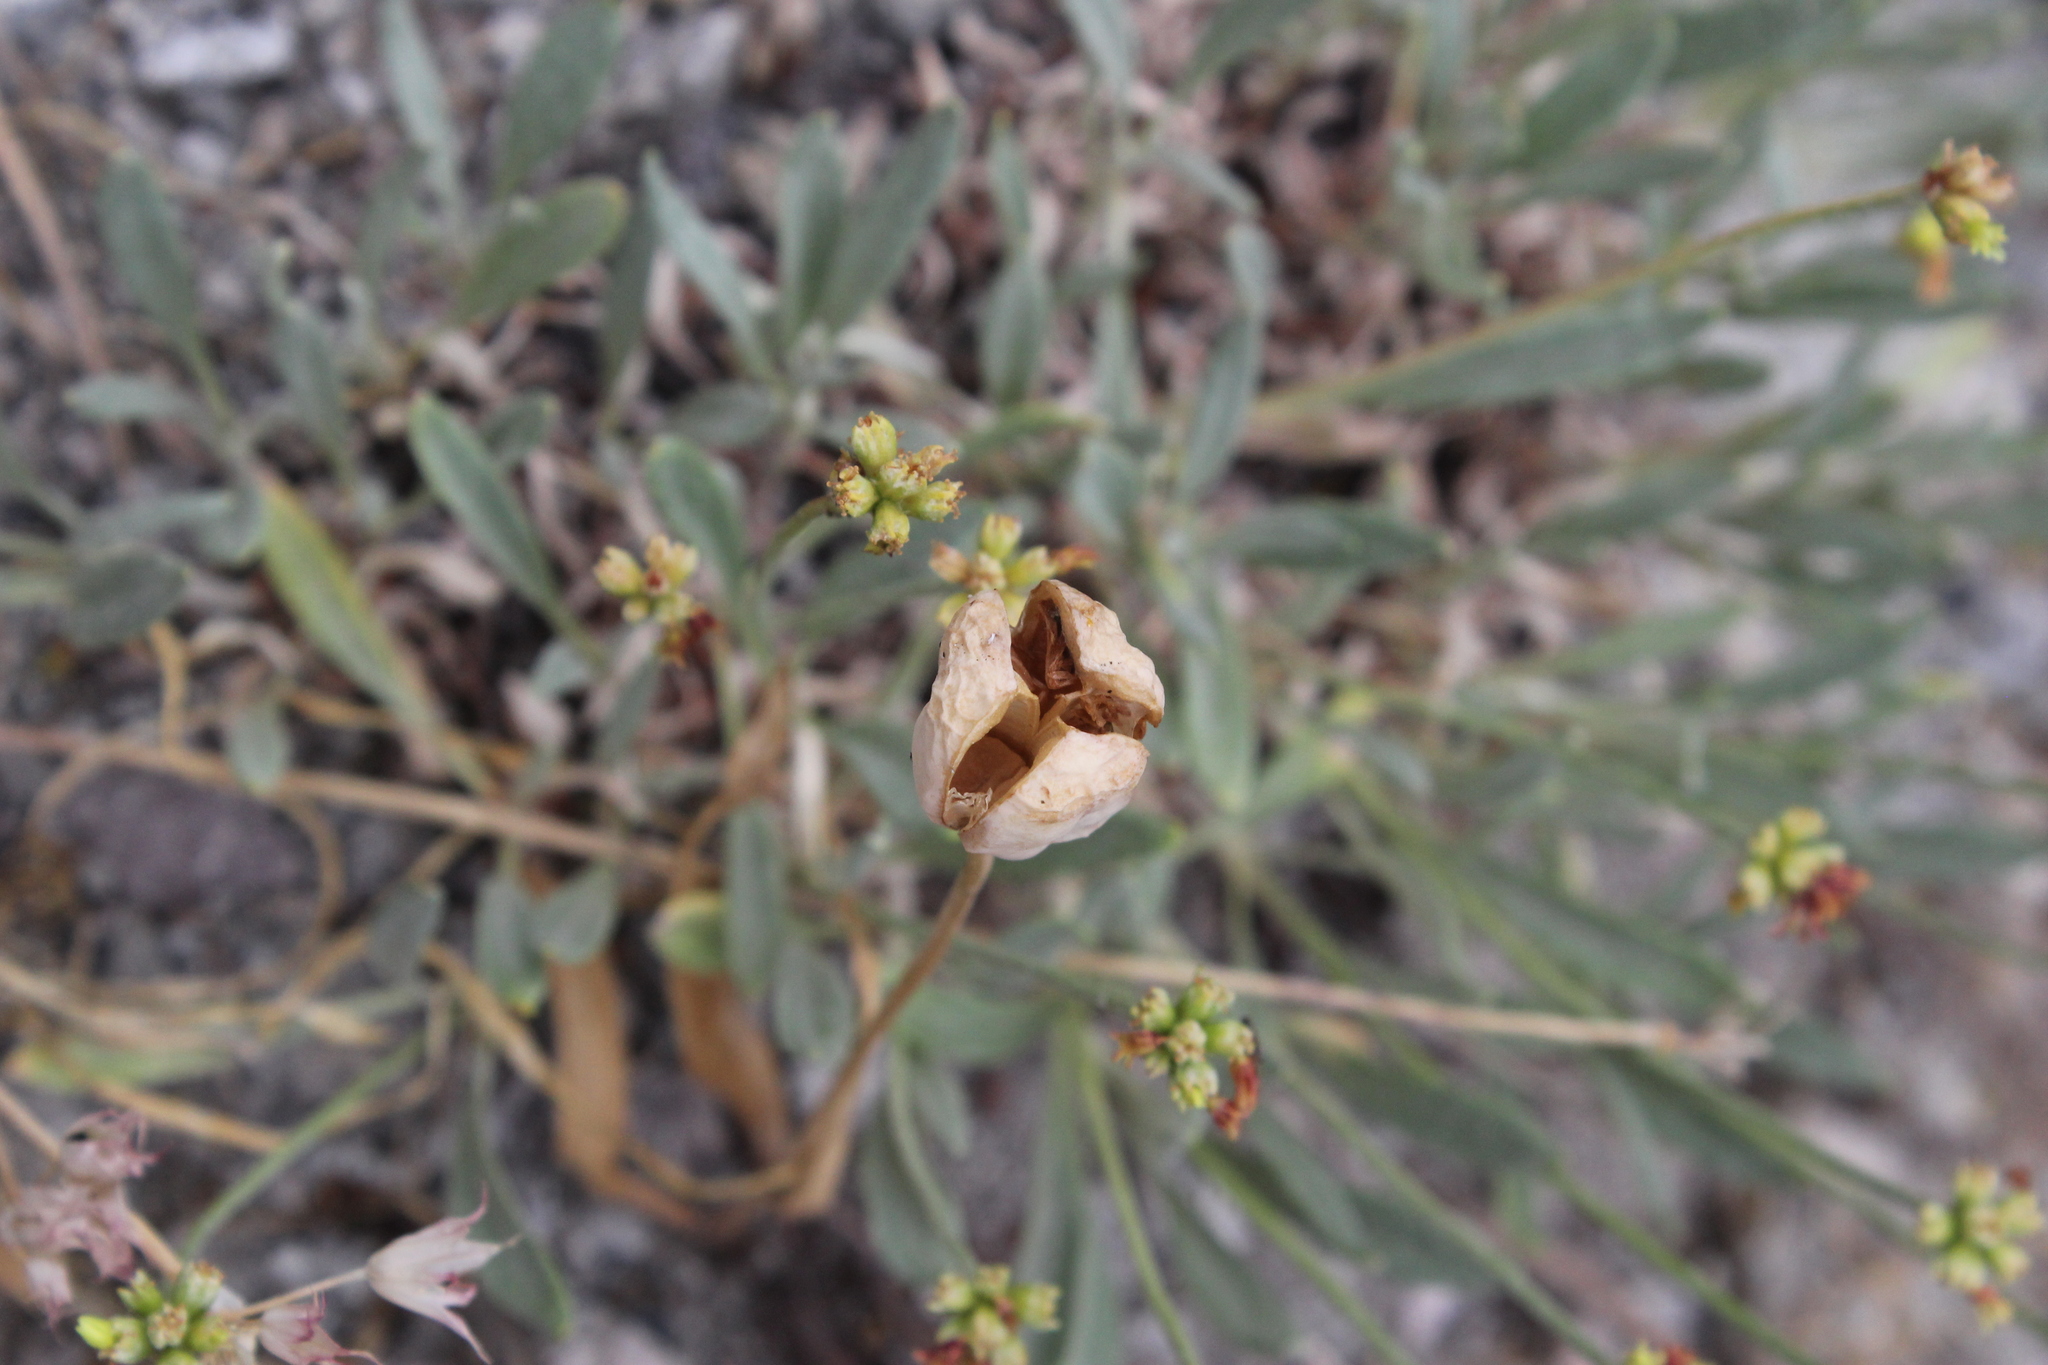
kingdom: Plantae
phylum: Tracheophyta
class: Liliopsida
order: Liliales
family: Liliaceae
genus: Fritillaria
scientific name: Fritillaria pudica
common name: Yellow fritillary
